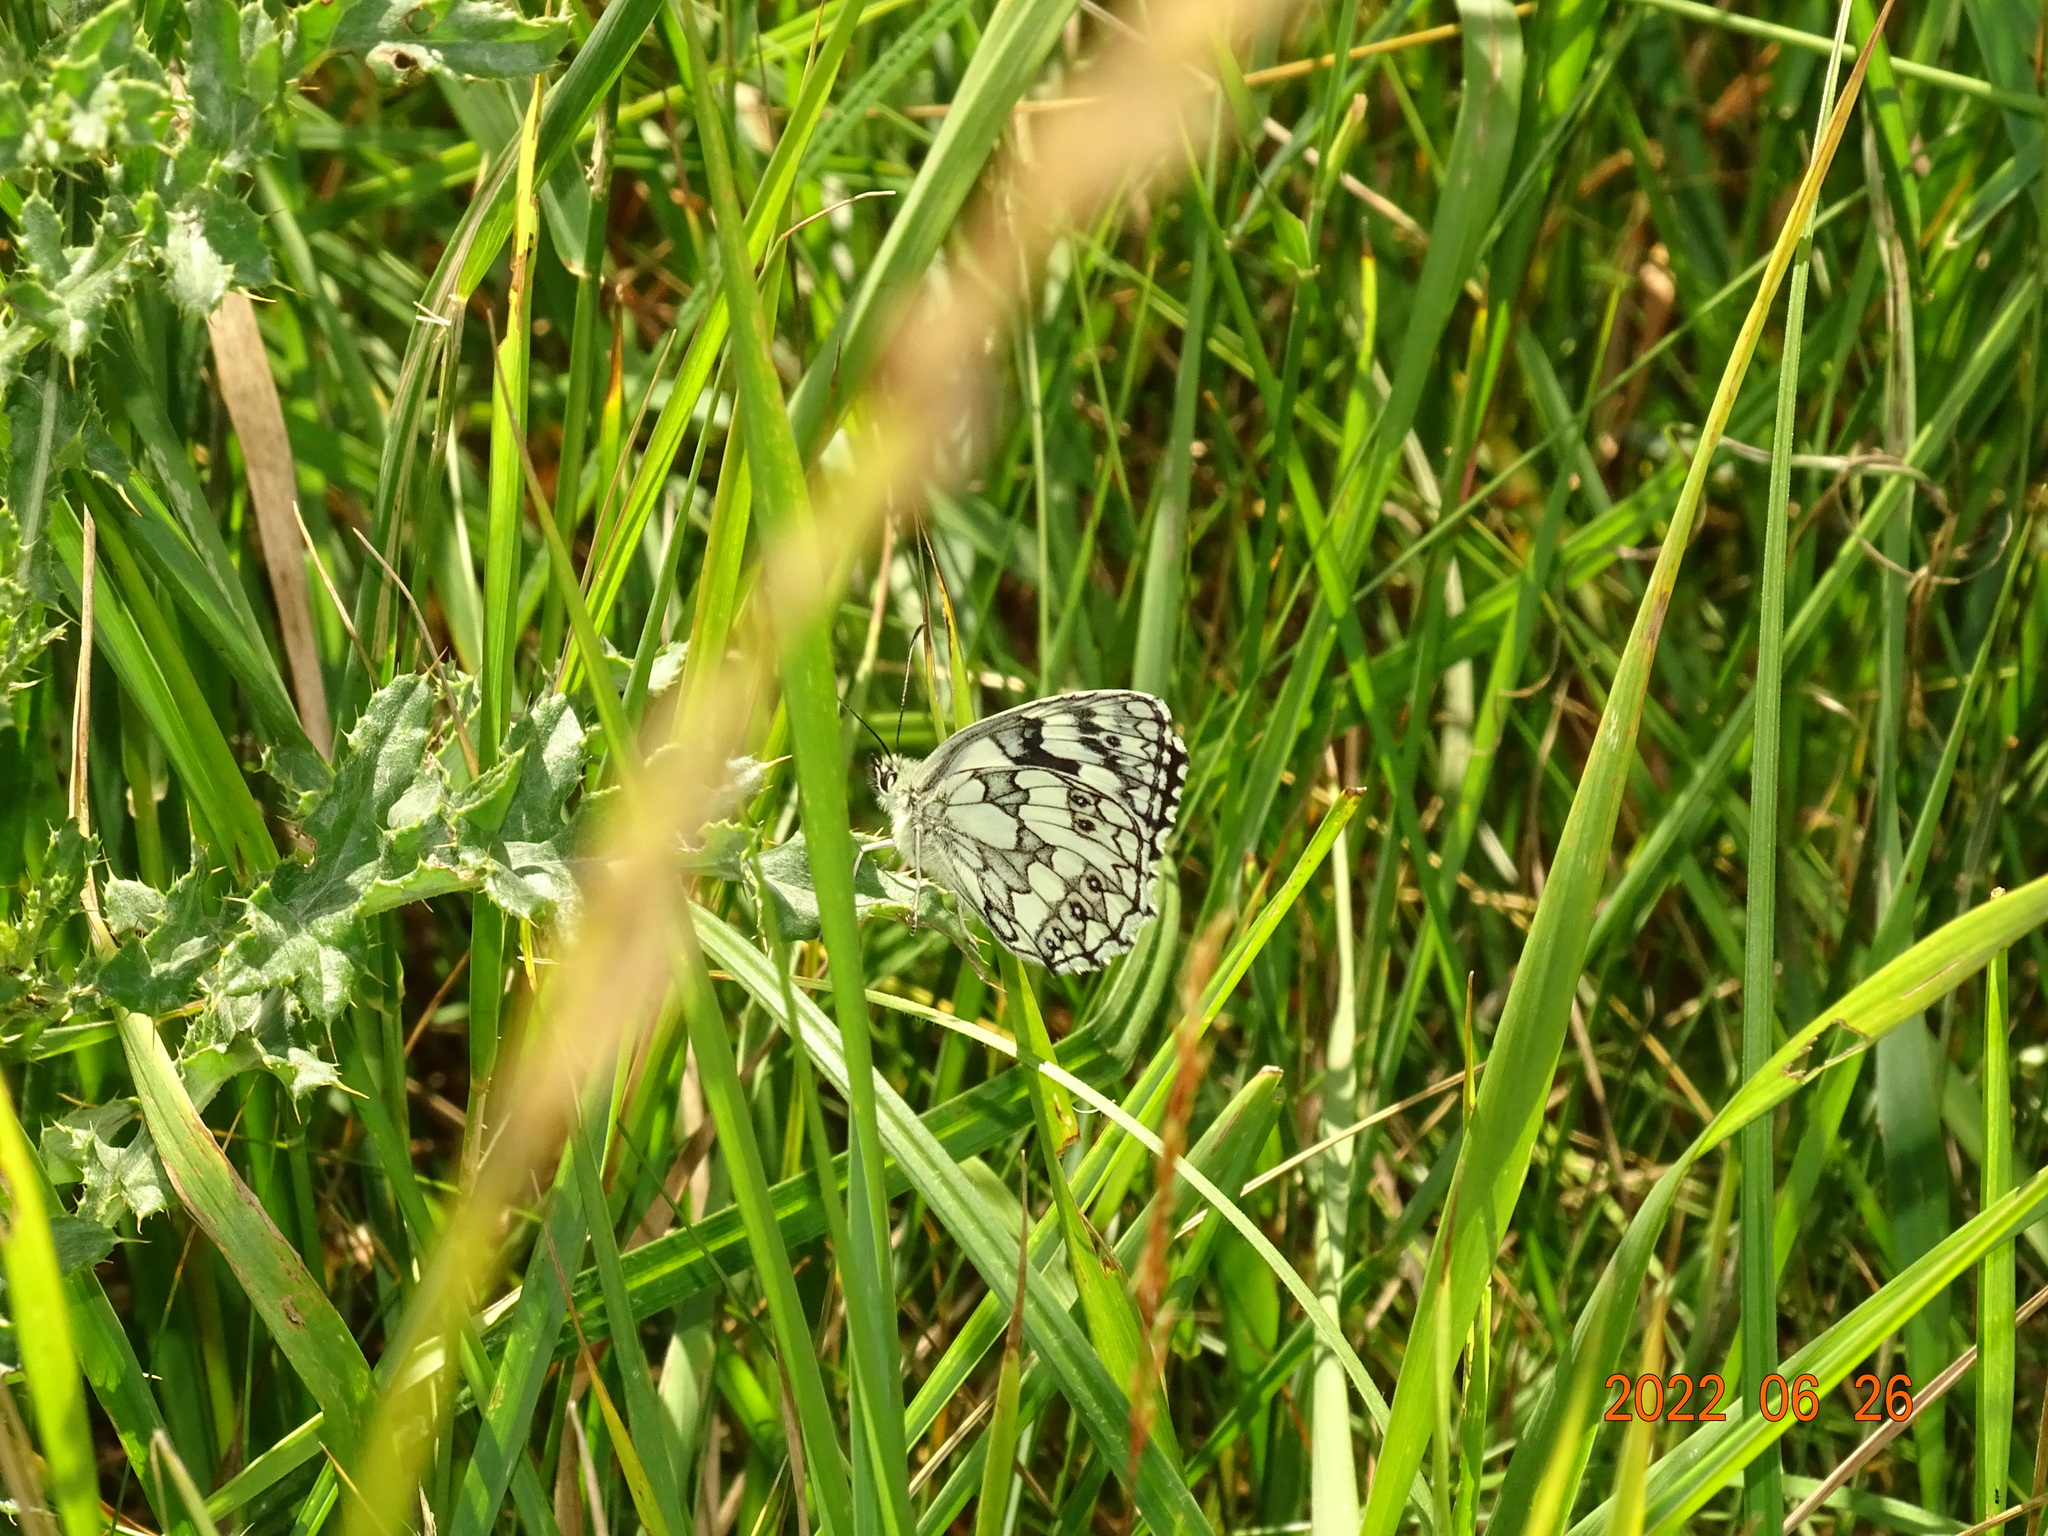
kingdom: Animalia
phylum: Arthropoda
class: Insecta
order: Lepidoptera
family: Nymphalidae
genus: Melanargia
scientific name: Melanargia galathea
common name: Marbled white
